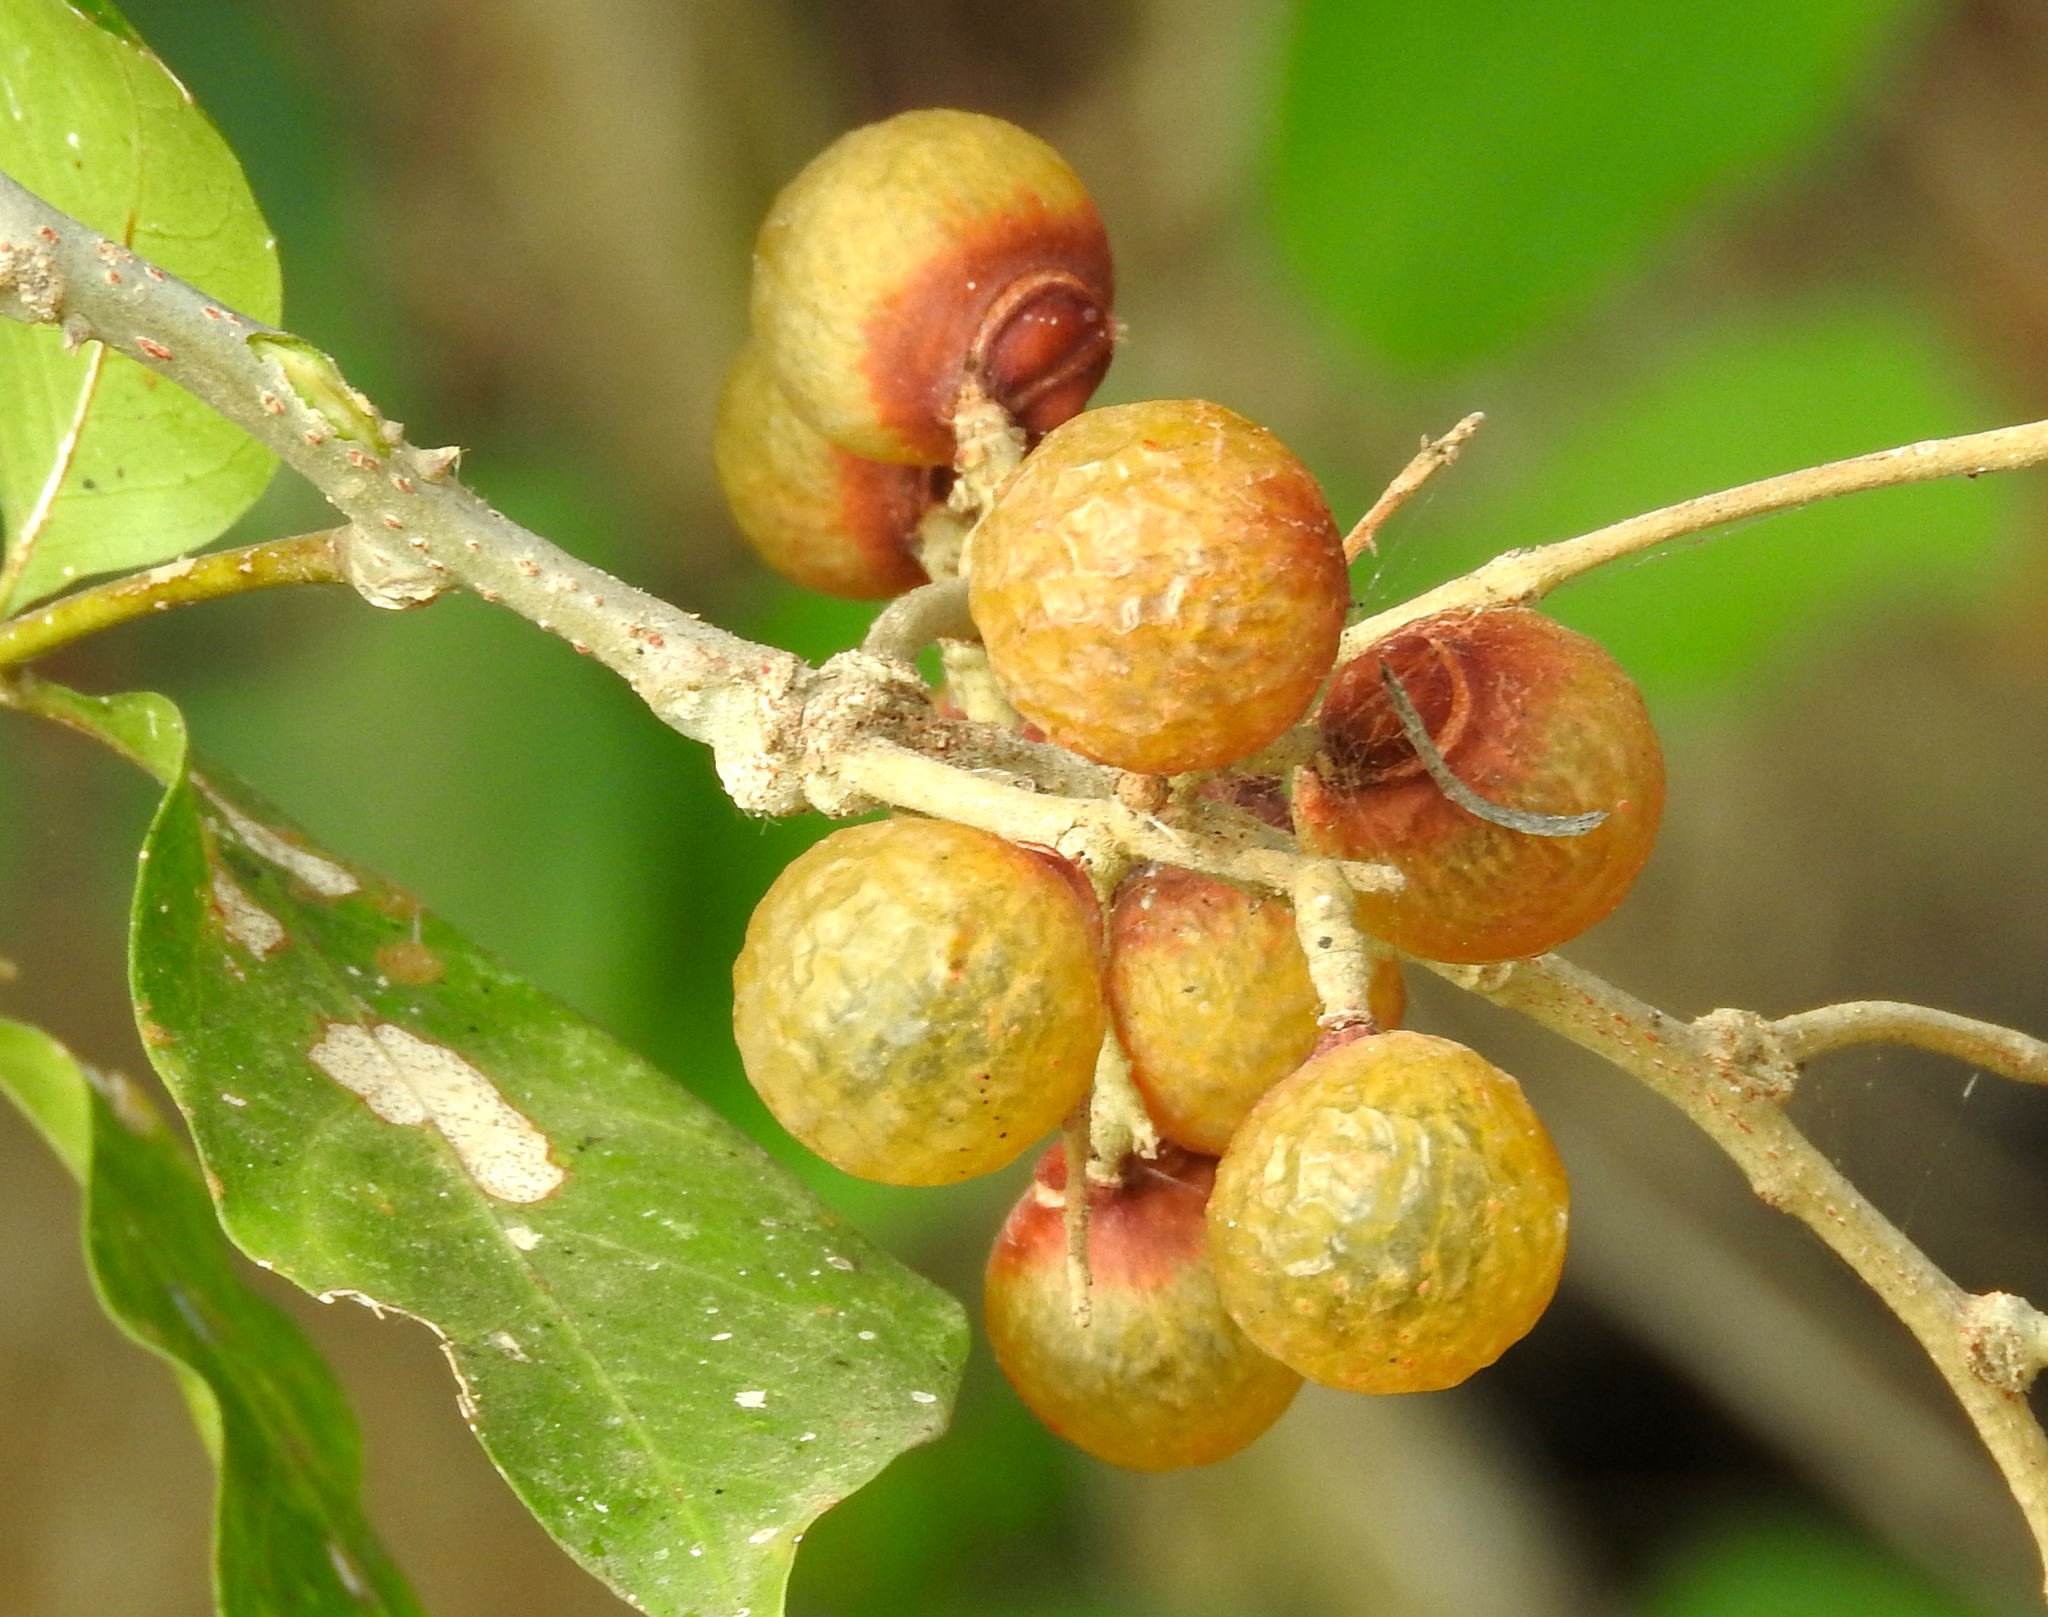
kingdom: Plantae
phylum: Tracheophyta
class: Magnoliopsida
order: Sapindales
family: Sapindaceae
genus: Sapindus
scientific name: Sapindus drummondii
